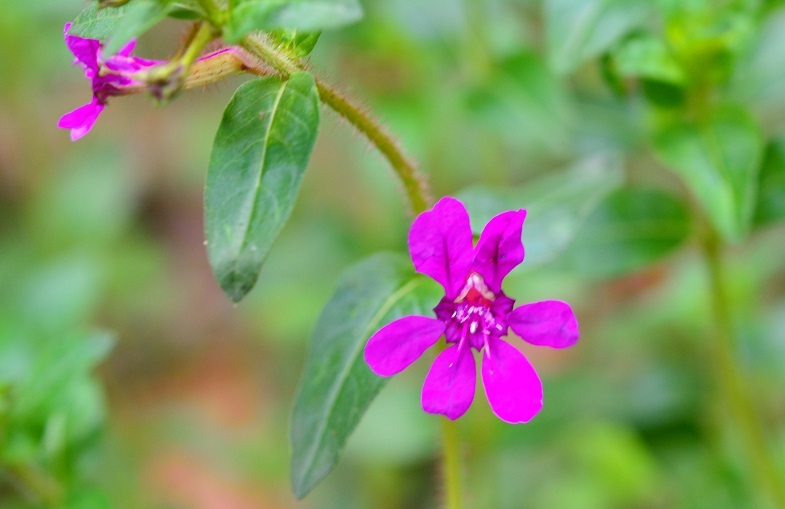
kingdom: Plantae
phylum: Tracheophyta
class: Magnoliopsida
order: Myrtales
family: Lythraceae
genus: Cuphea
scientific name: Cuphea aequipetala
